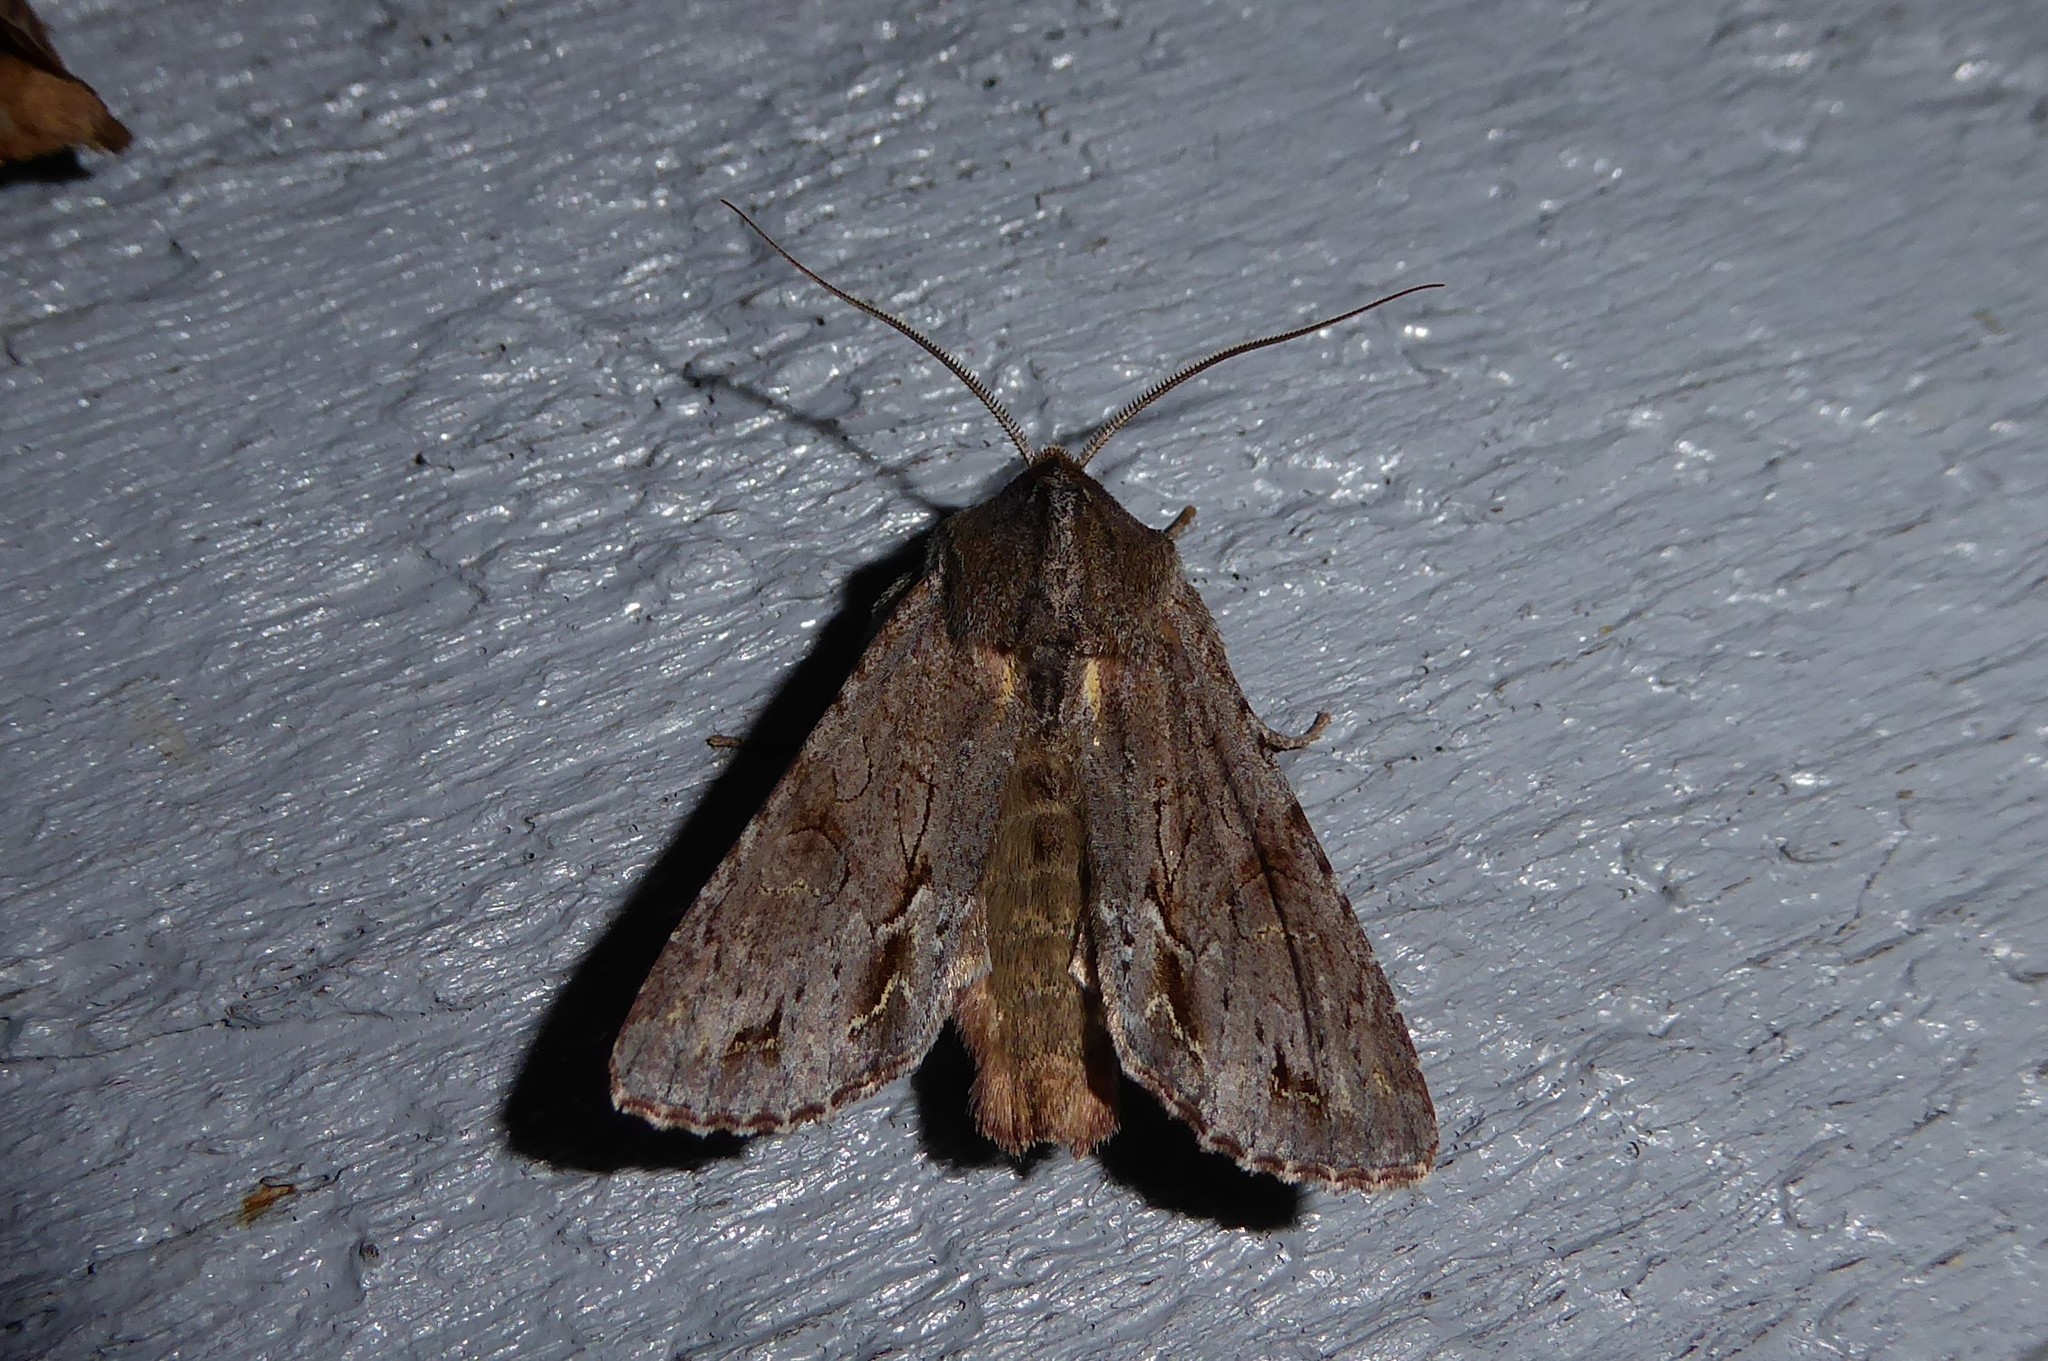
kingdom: Animalia
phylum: Arthropoda
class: Insecta
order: Lepidoptera
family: Noctuidae
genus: Ichneutica
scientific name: Ichneutica
